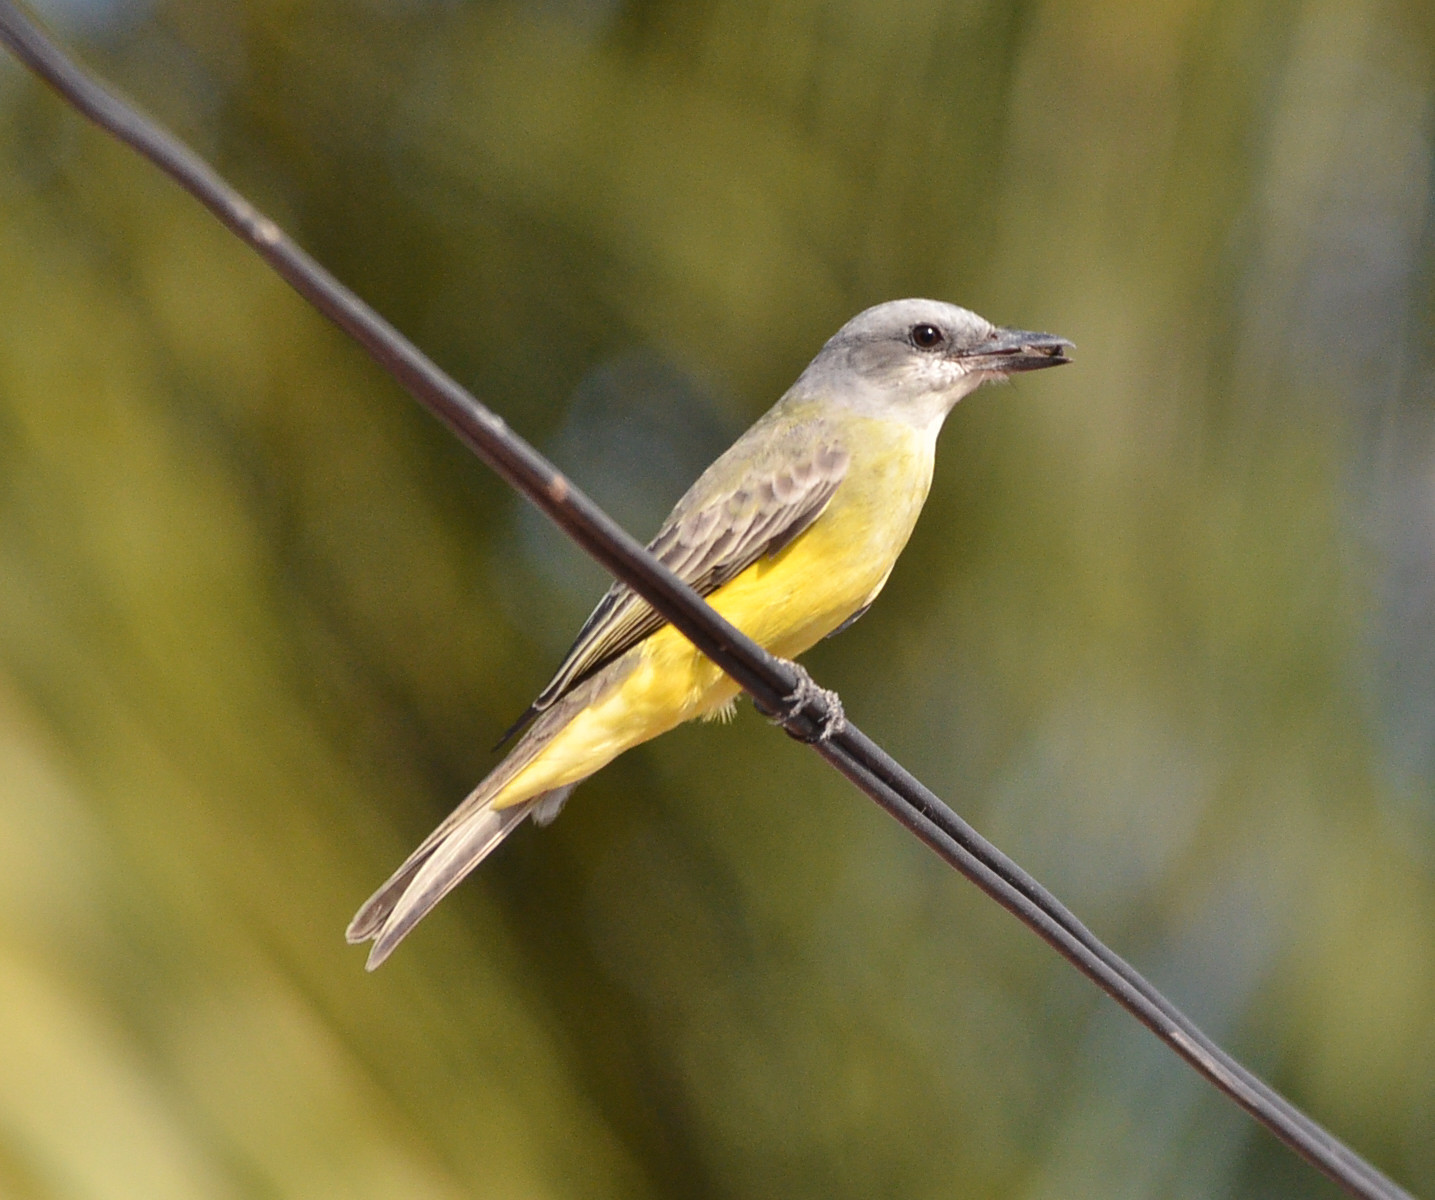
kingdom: Animalia
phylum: Chordata
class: Aves
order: Passeriformes
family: Tyrannidae
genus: Tyrannus
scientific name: Tyrannus melancholicus
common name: Tropical kingbird
